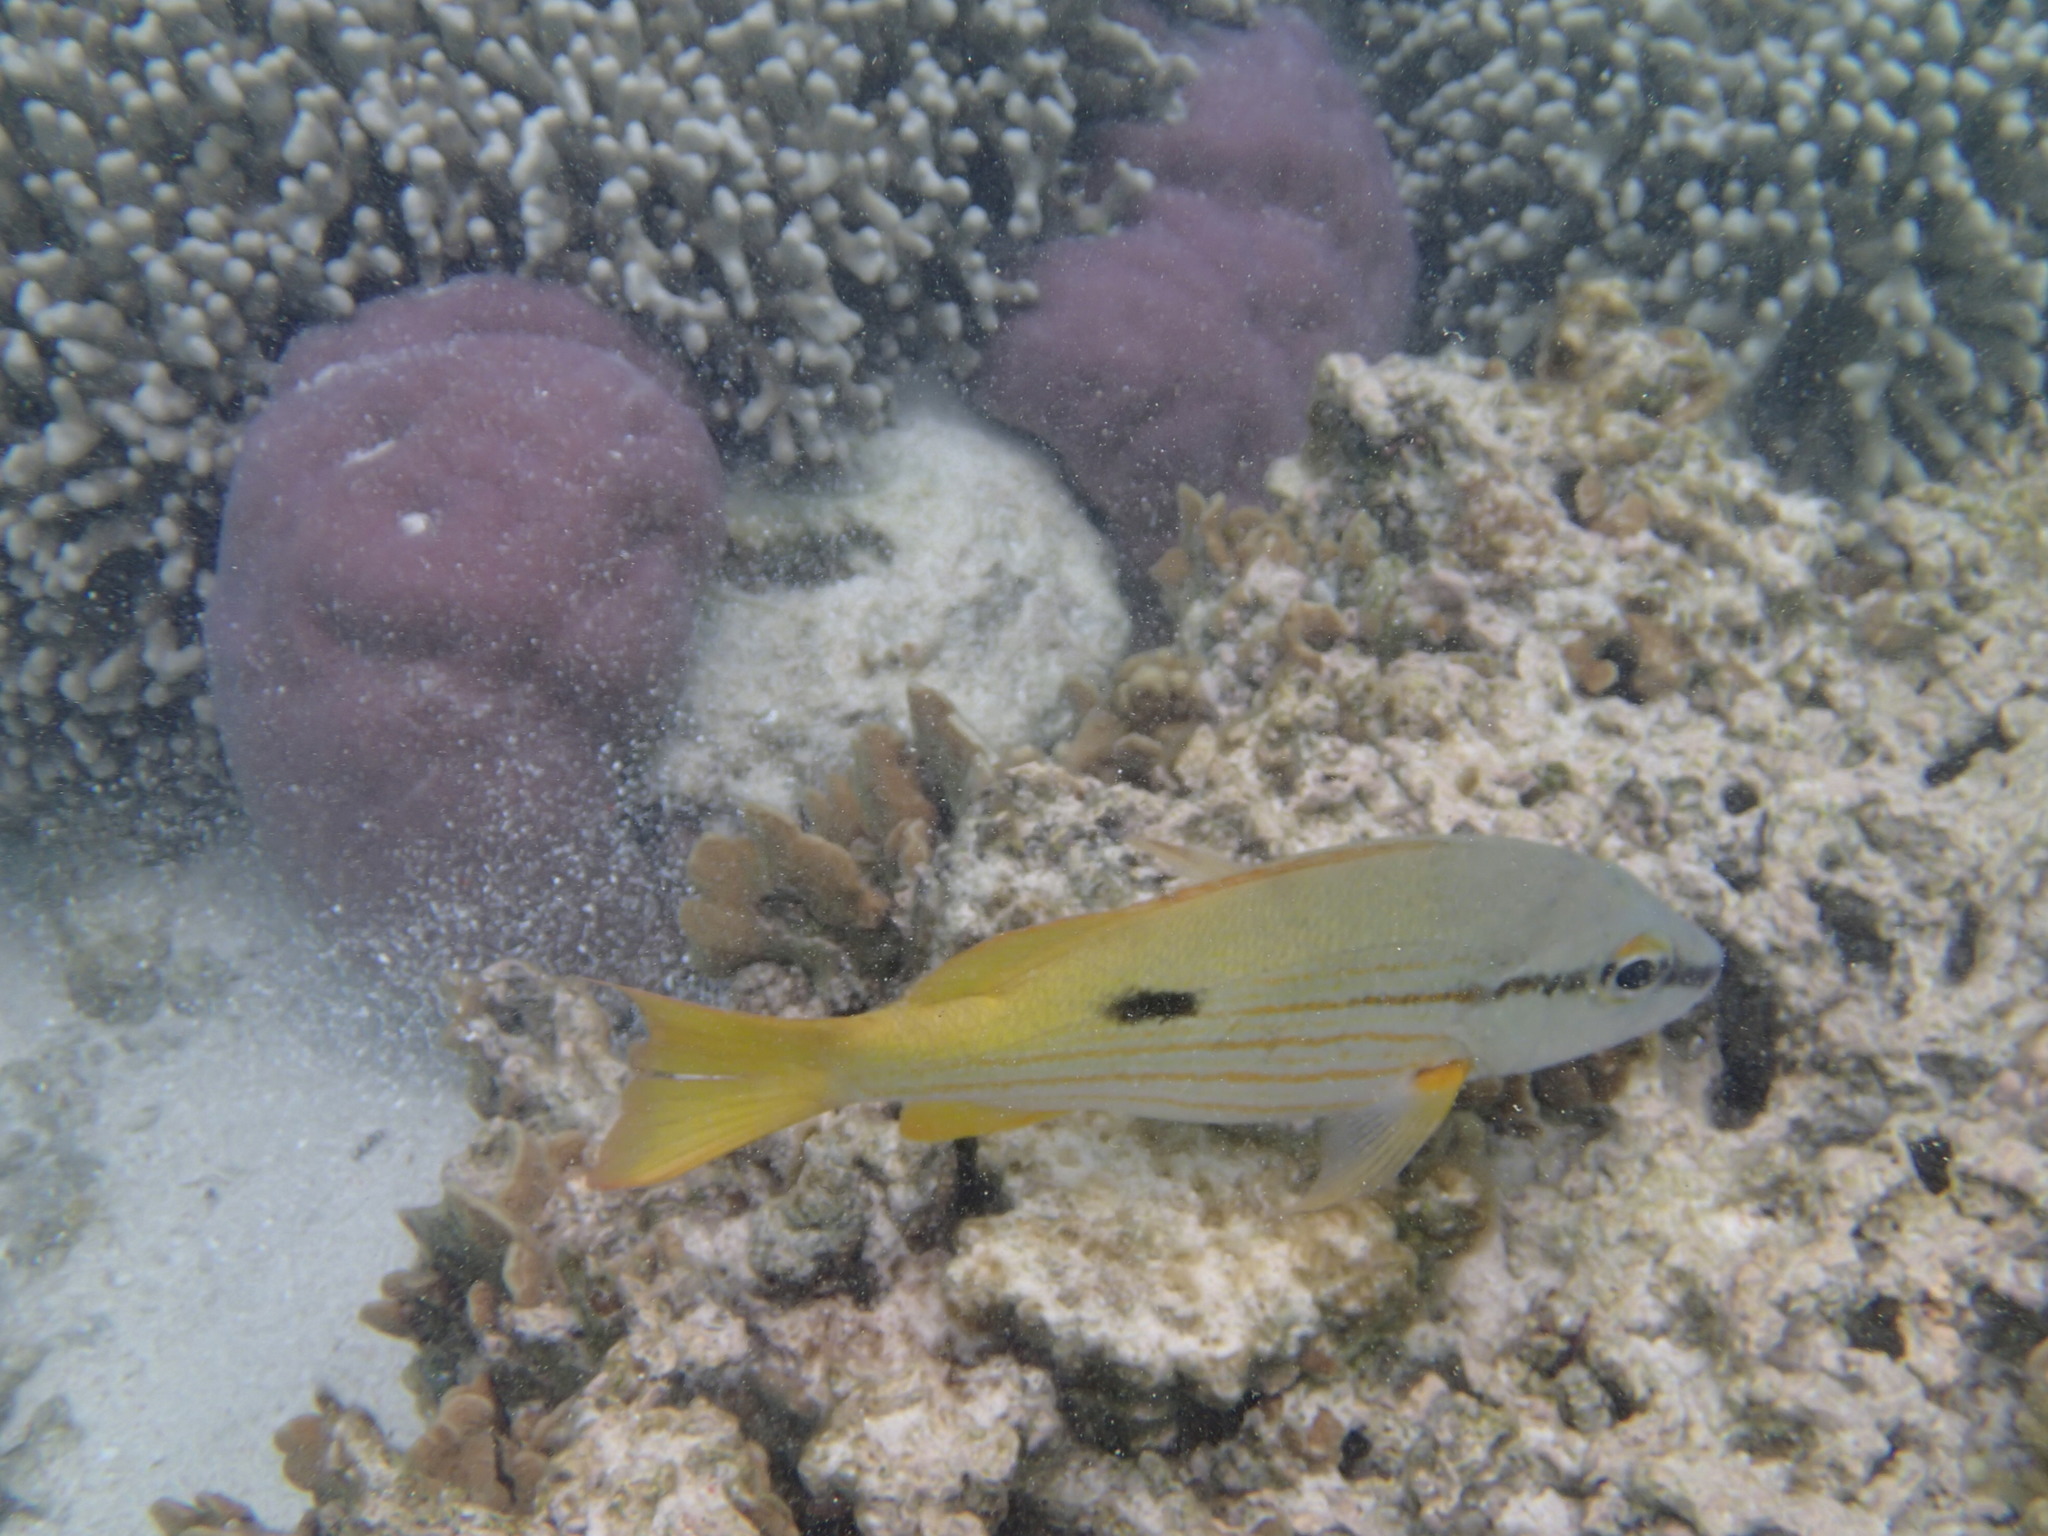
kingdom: Animalia
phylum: Chordata
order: Perciformes
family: Lutjanidae
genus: Lutjanus
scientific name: Lutjanus fulviflamma
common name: Blackspot snapper
